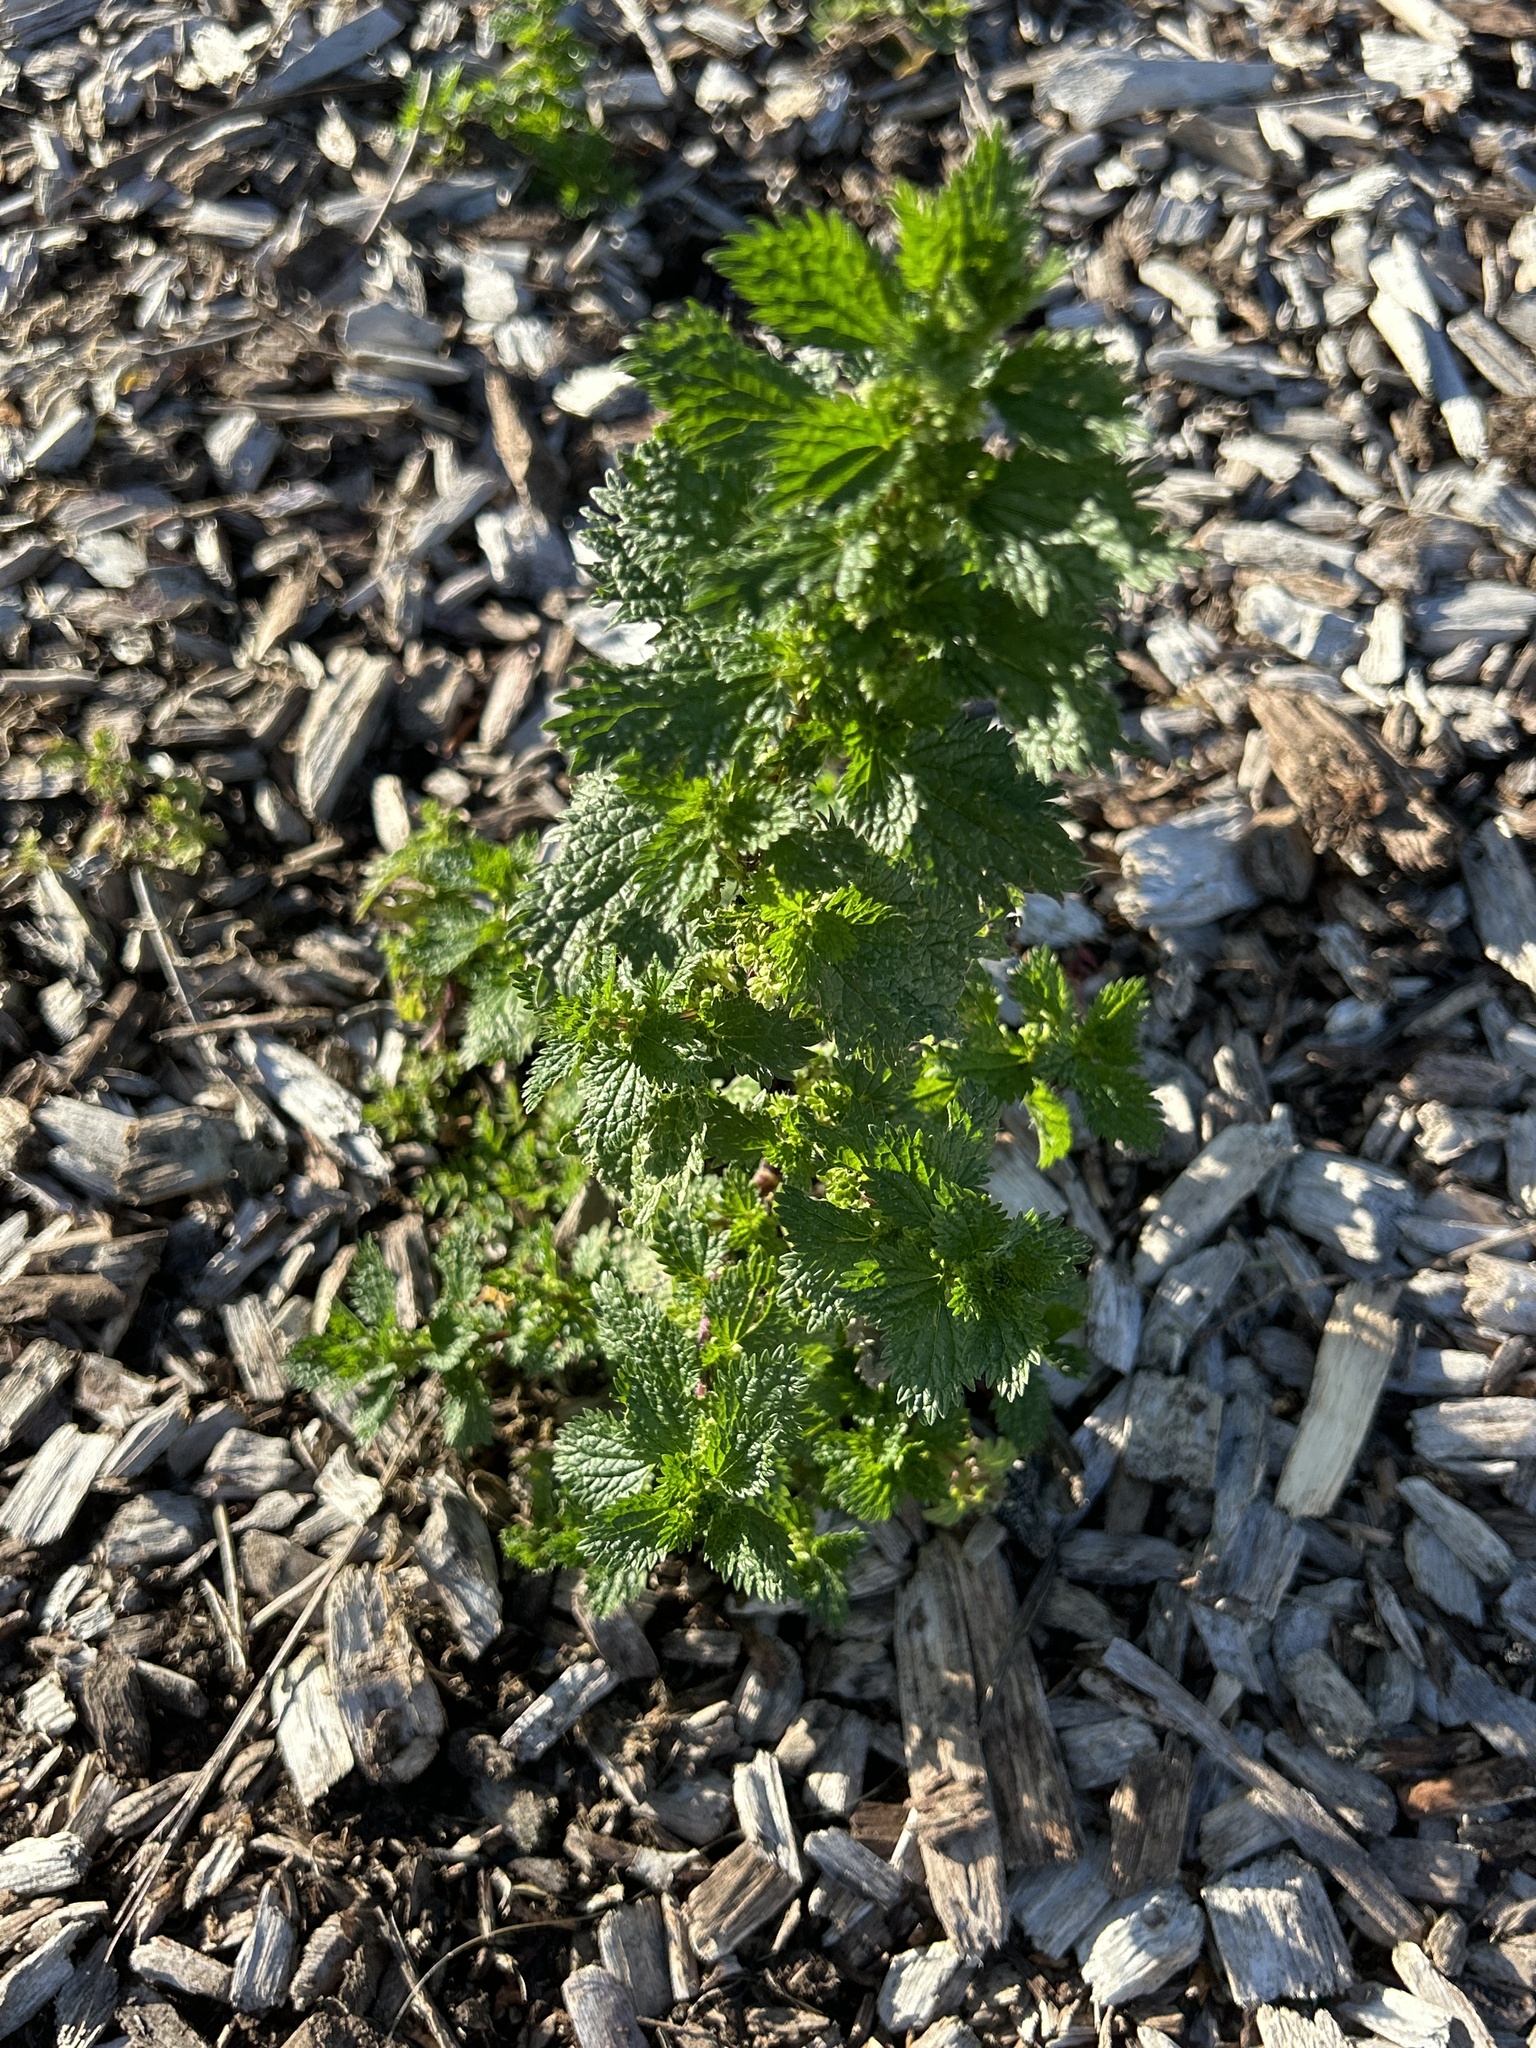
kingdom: Plantae
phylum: Tracheophyta
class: Magnoliopsida
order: Rosales
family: Urticaceae
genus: Urtica
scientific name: Urtica urens
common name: Dwarf nettle
